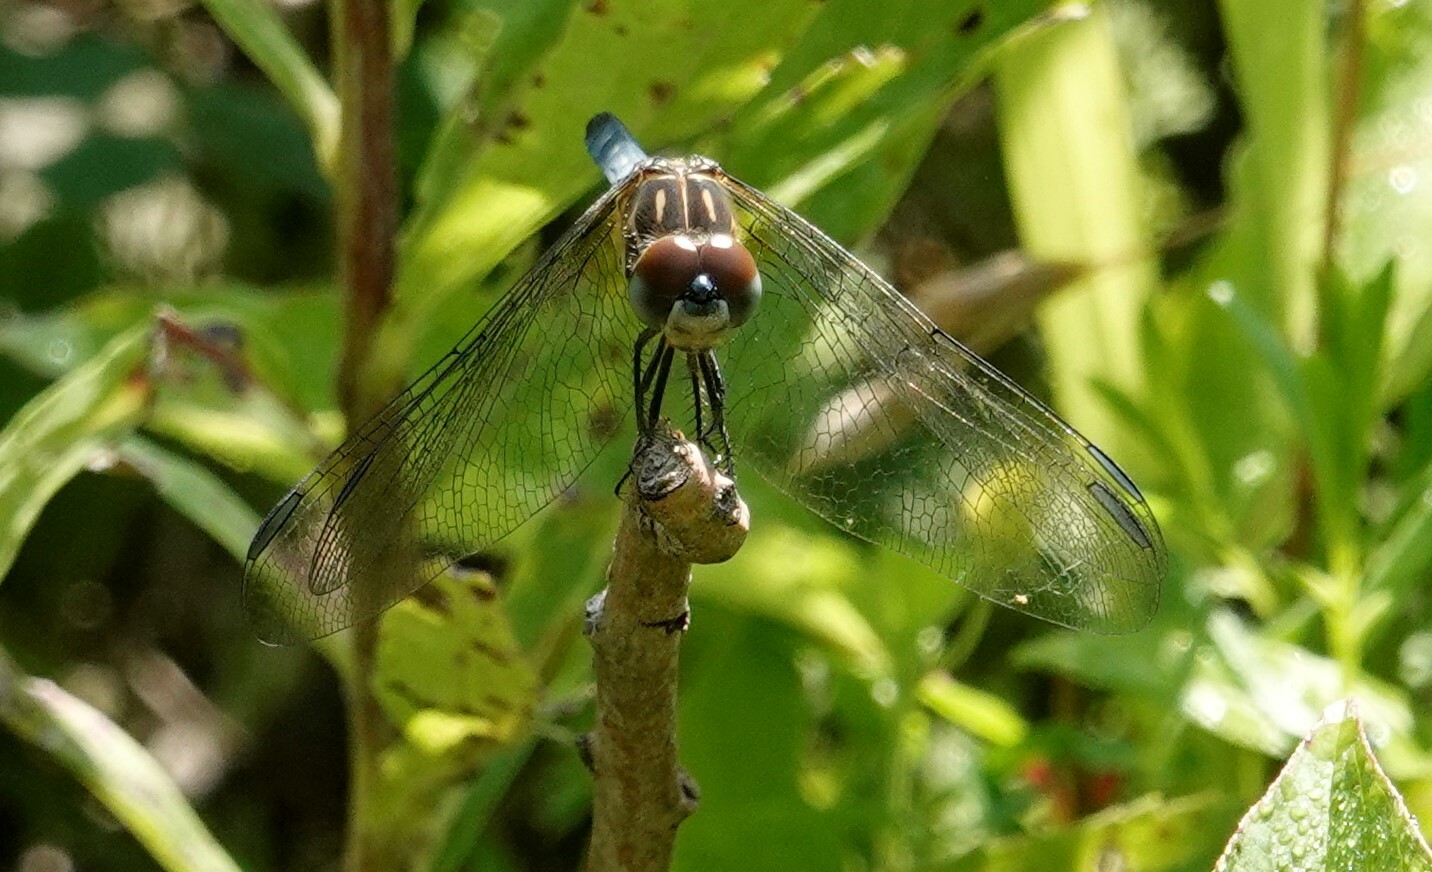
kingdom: Animalia
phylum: Arthropoda
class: Insecta
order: Odonata
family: Libellulidae
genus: Pachydiplax
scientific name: Pachydiplax longipennis
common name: Blue dasher
